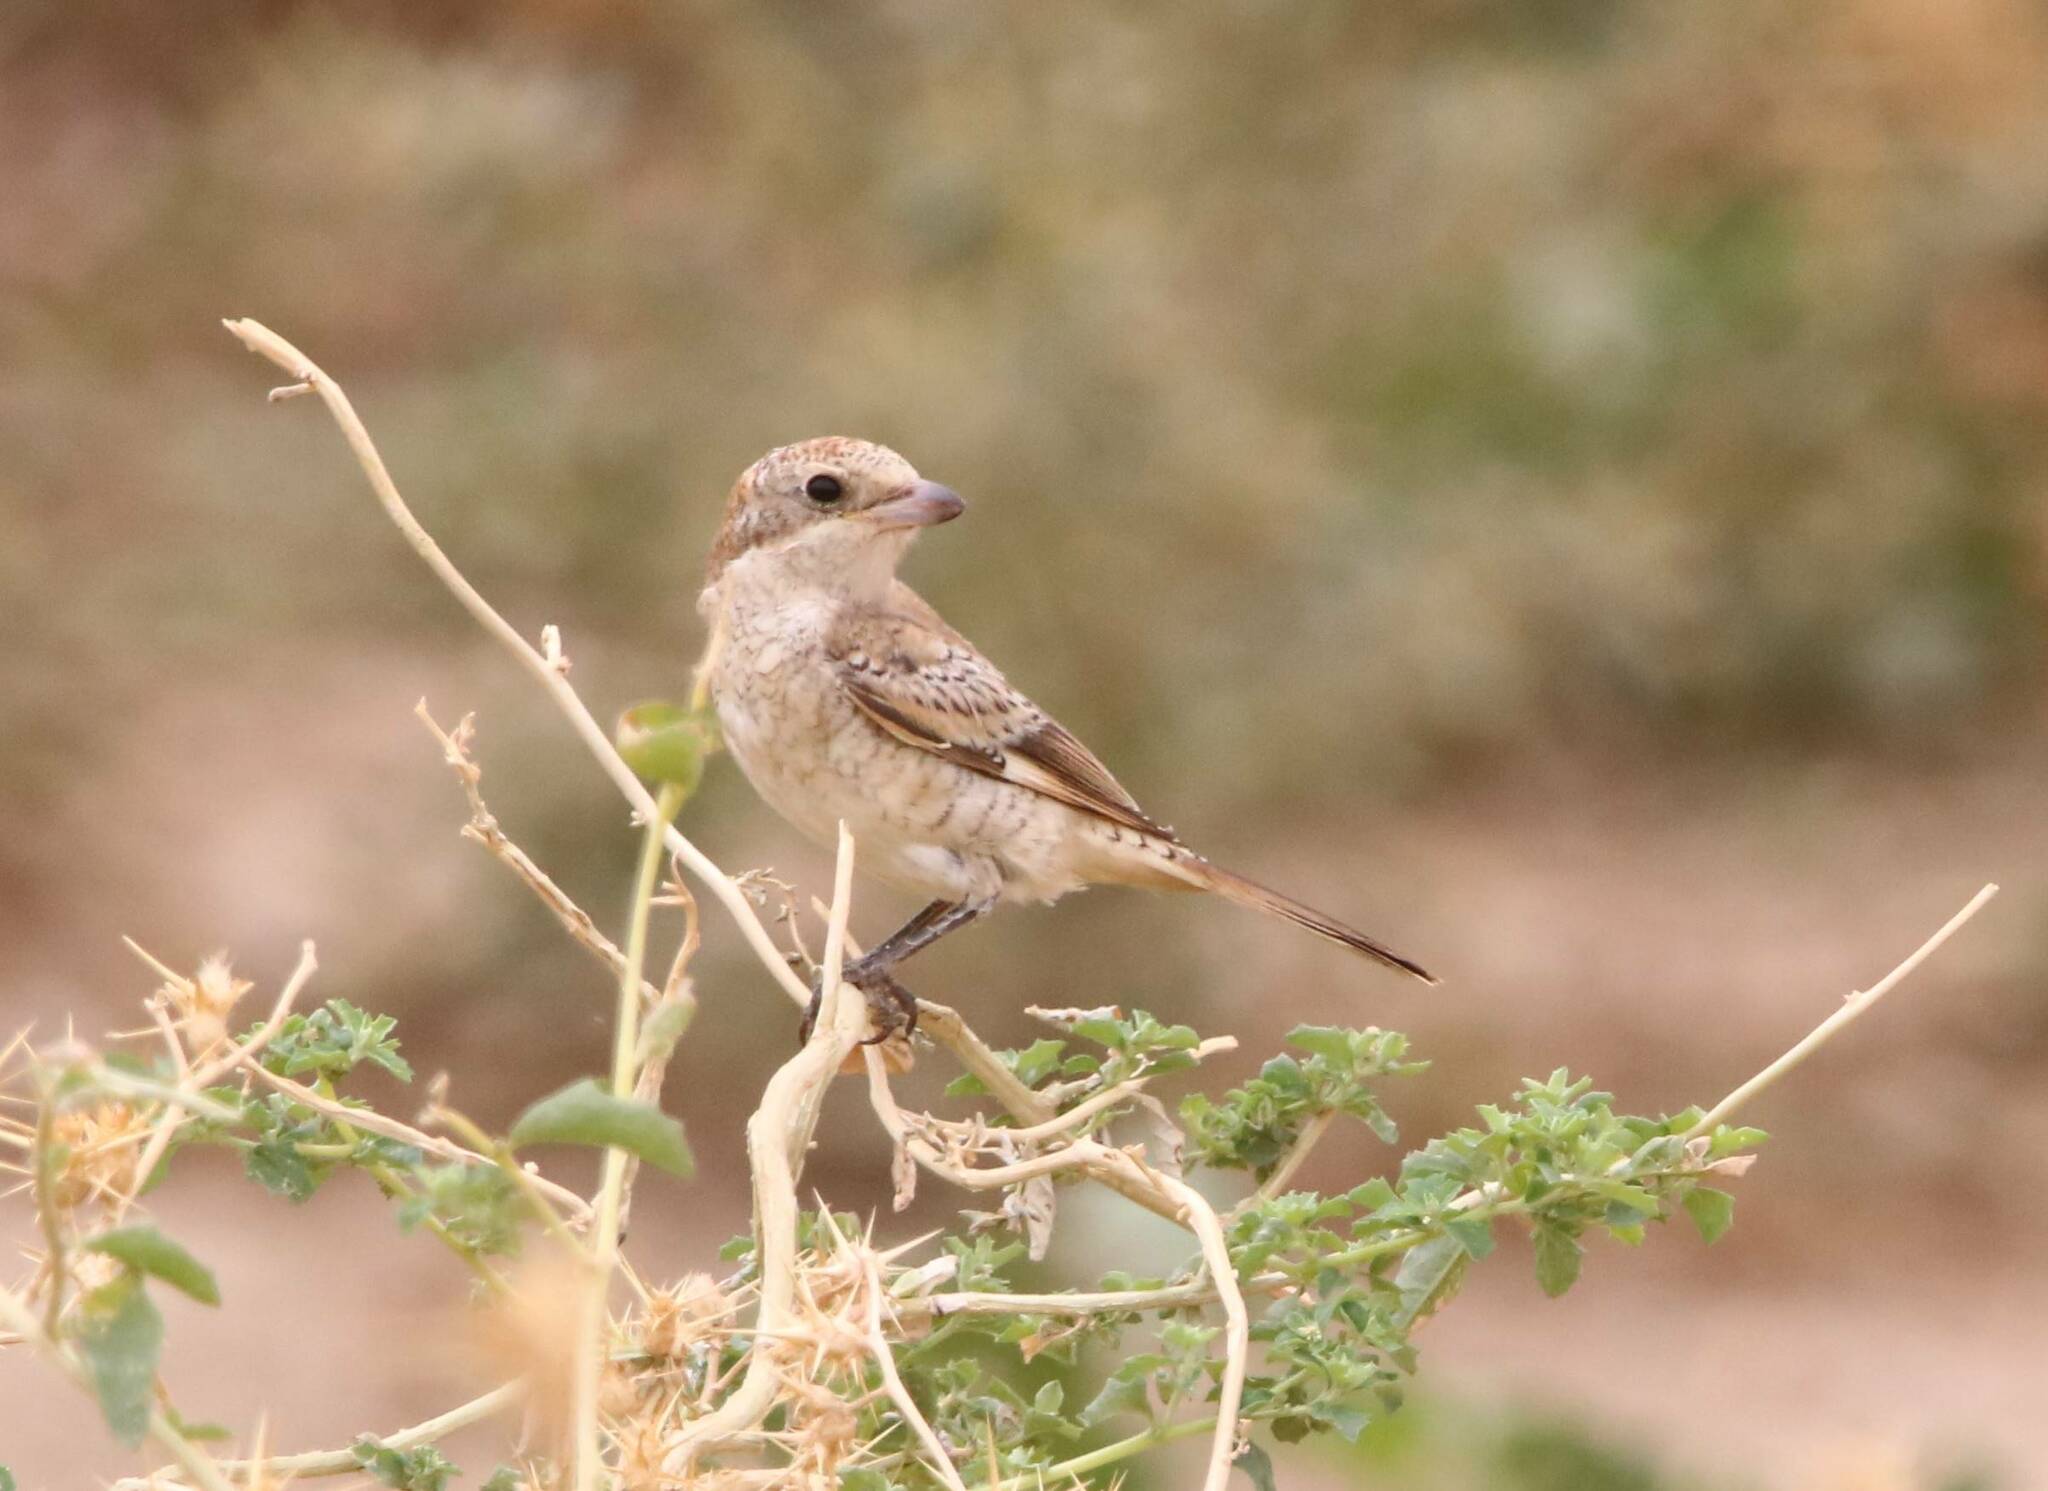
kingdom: Animalia
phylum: Chordata
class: Aves
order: Passeriformes
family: Laniidae
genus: Lanius
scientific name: Lanius senator
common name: Woodchat shrike
